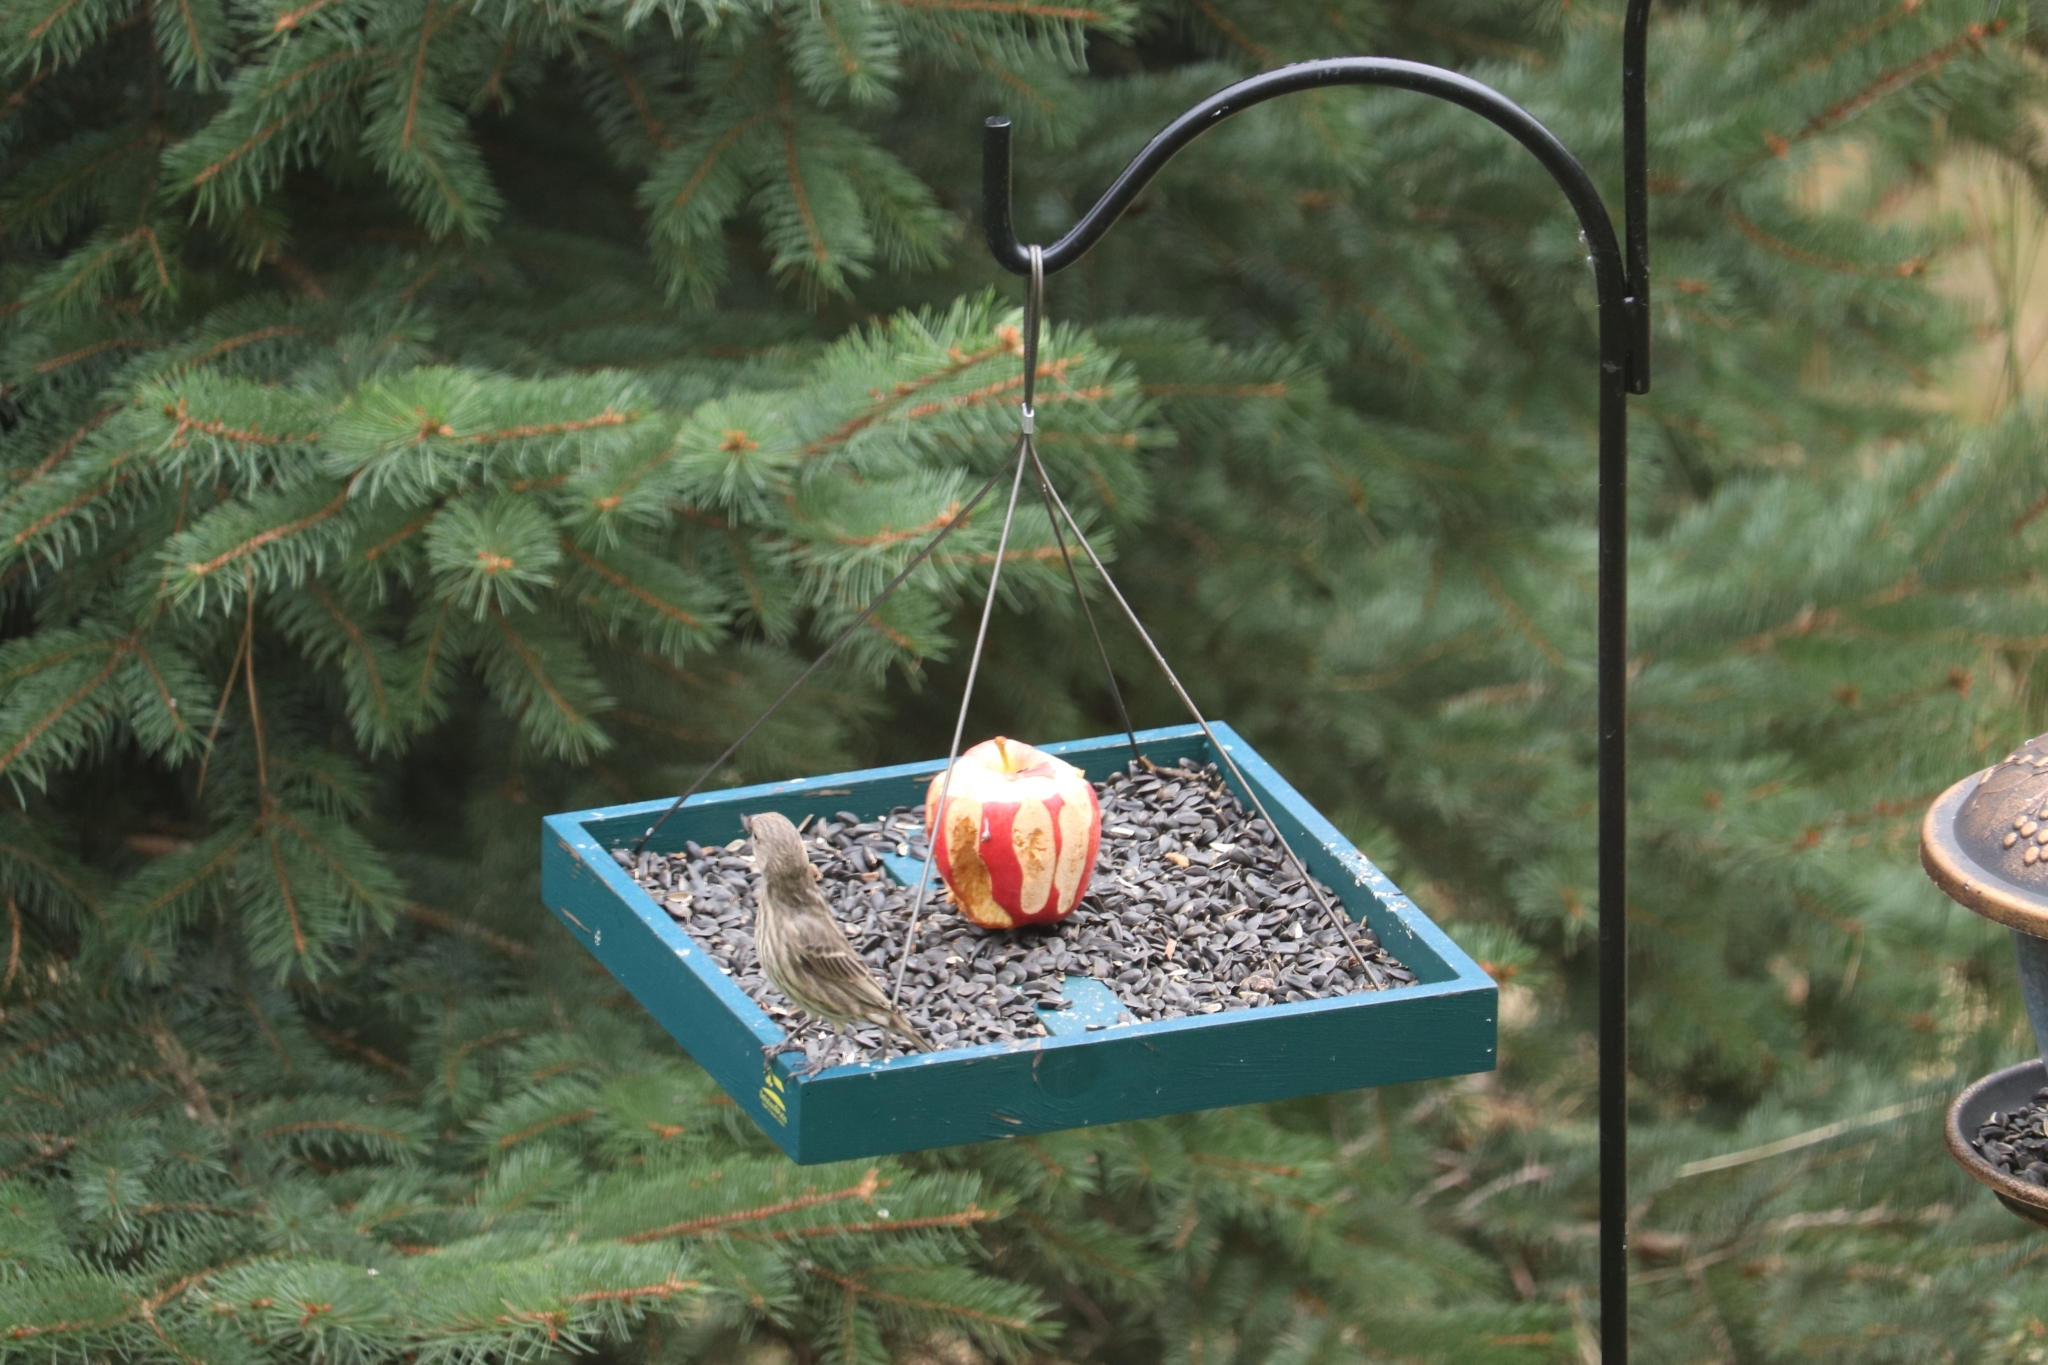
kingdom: Animalia
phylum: Chordata
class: Aves
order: Passeriformes
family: Fringillidae
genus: Haemorhous
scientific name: Haemorhous mexicanus
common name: House finch
